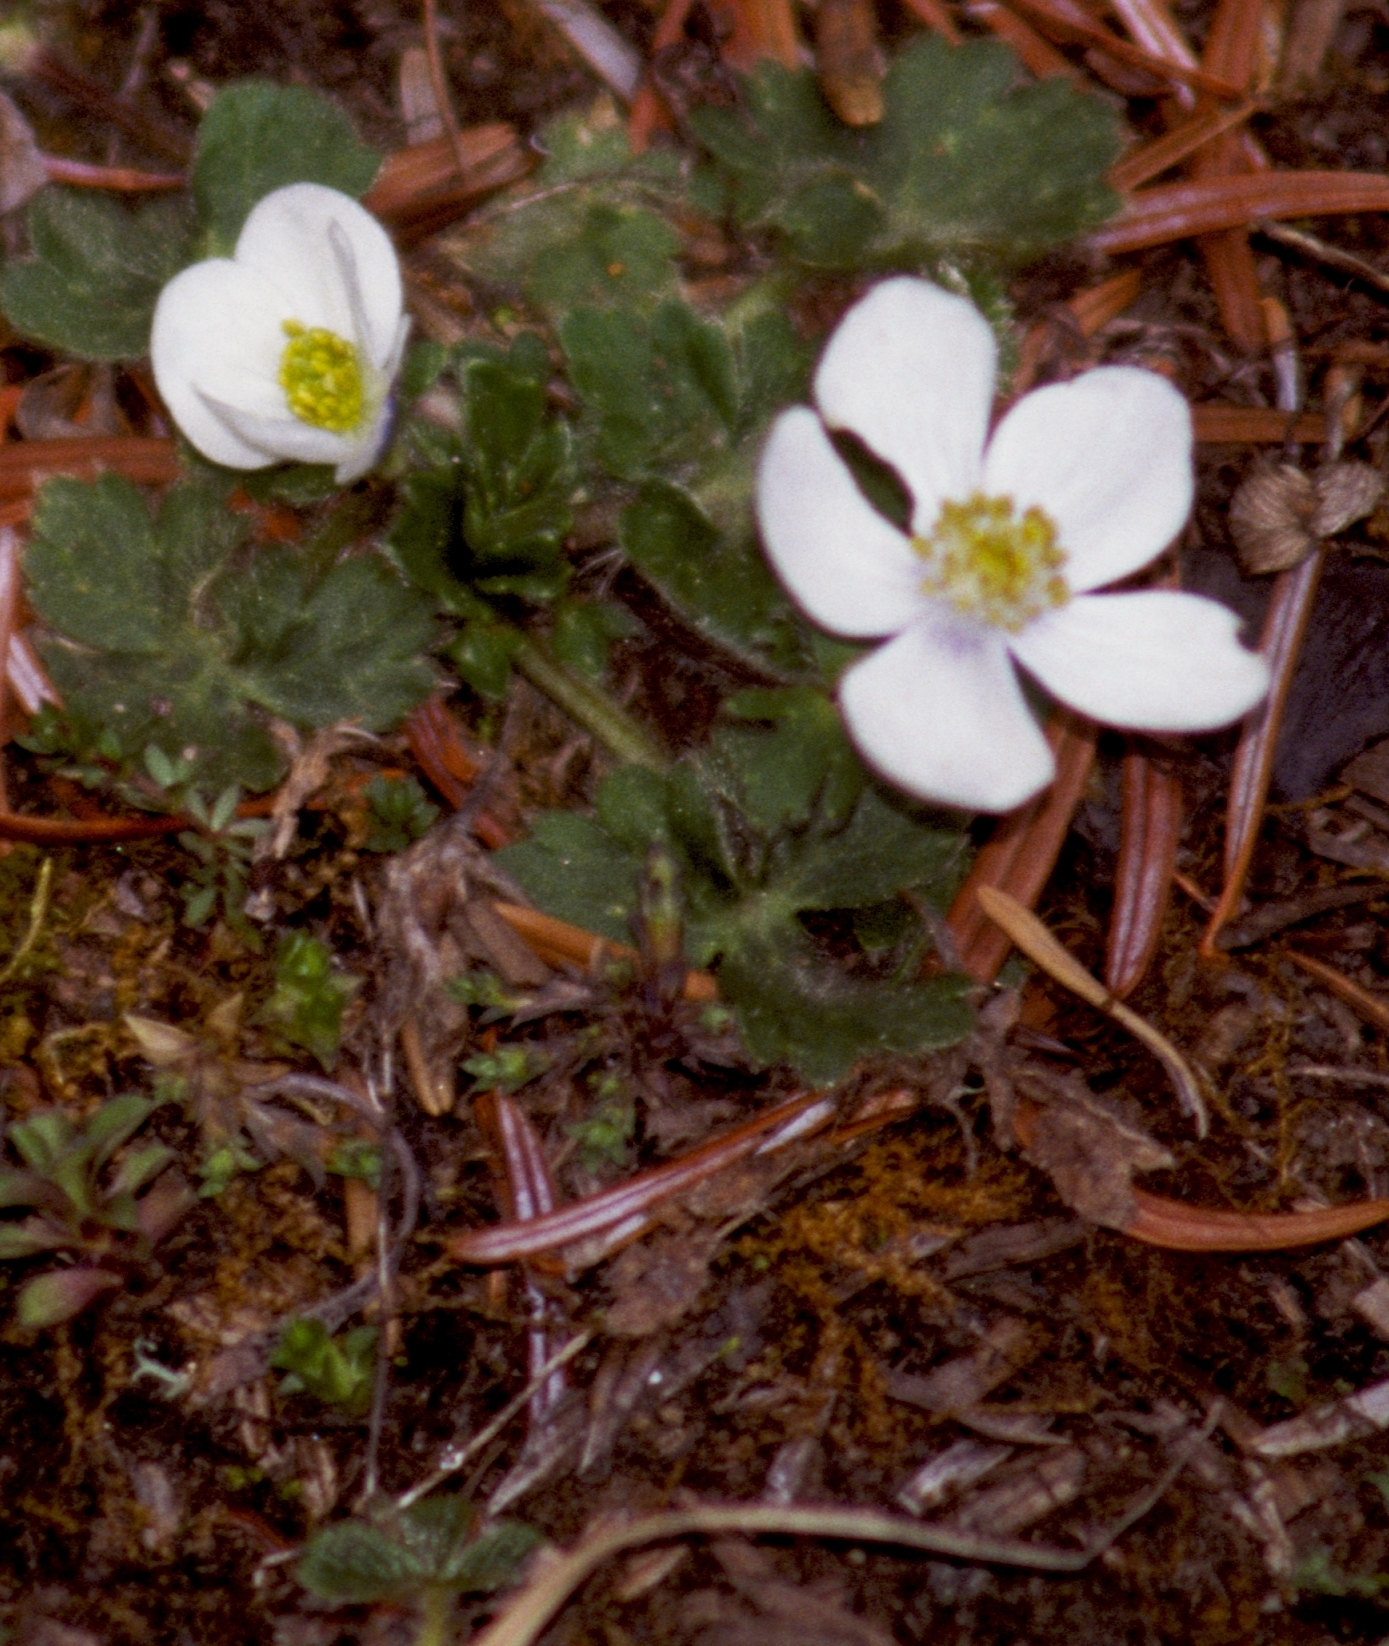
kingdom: Plantae
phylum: Tracheophyta
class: Magnoliopsida
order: Ranunculales
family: Ranunculaceae
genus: Anemonastrum
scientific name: Anemonastrum obtusilobum
